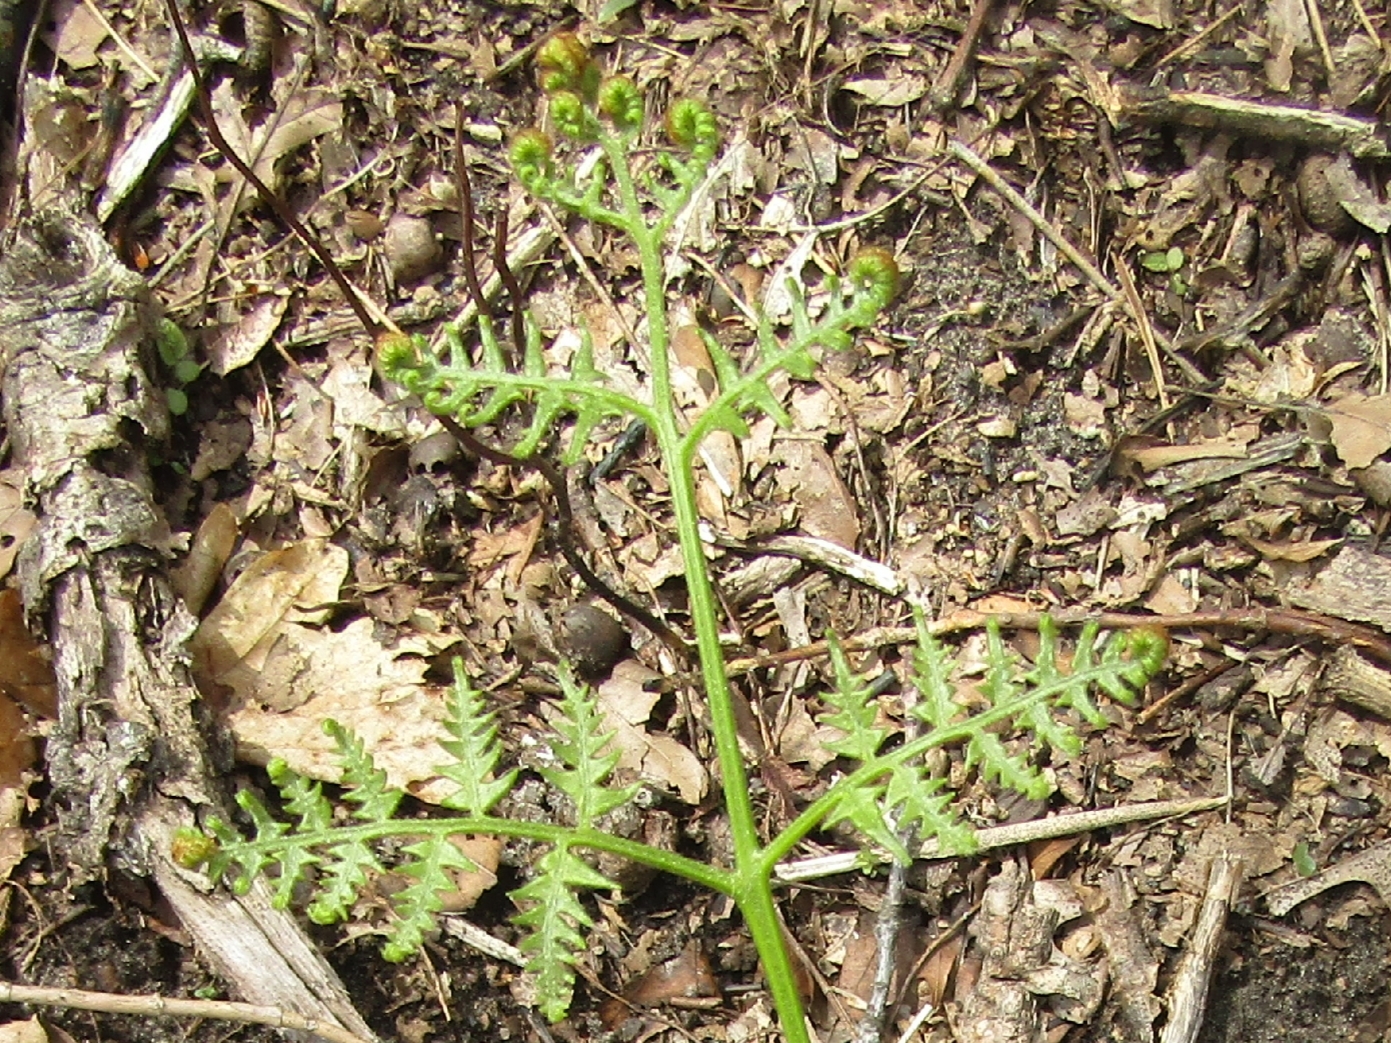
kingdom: Plantae
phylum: Tracheophyta
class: Polypodiopsida
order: Polypodiales
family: Dennstaedtiaceae
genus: Pteridium
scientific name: Pteridium aquilinum
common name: Bracken
